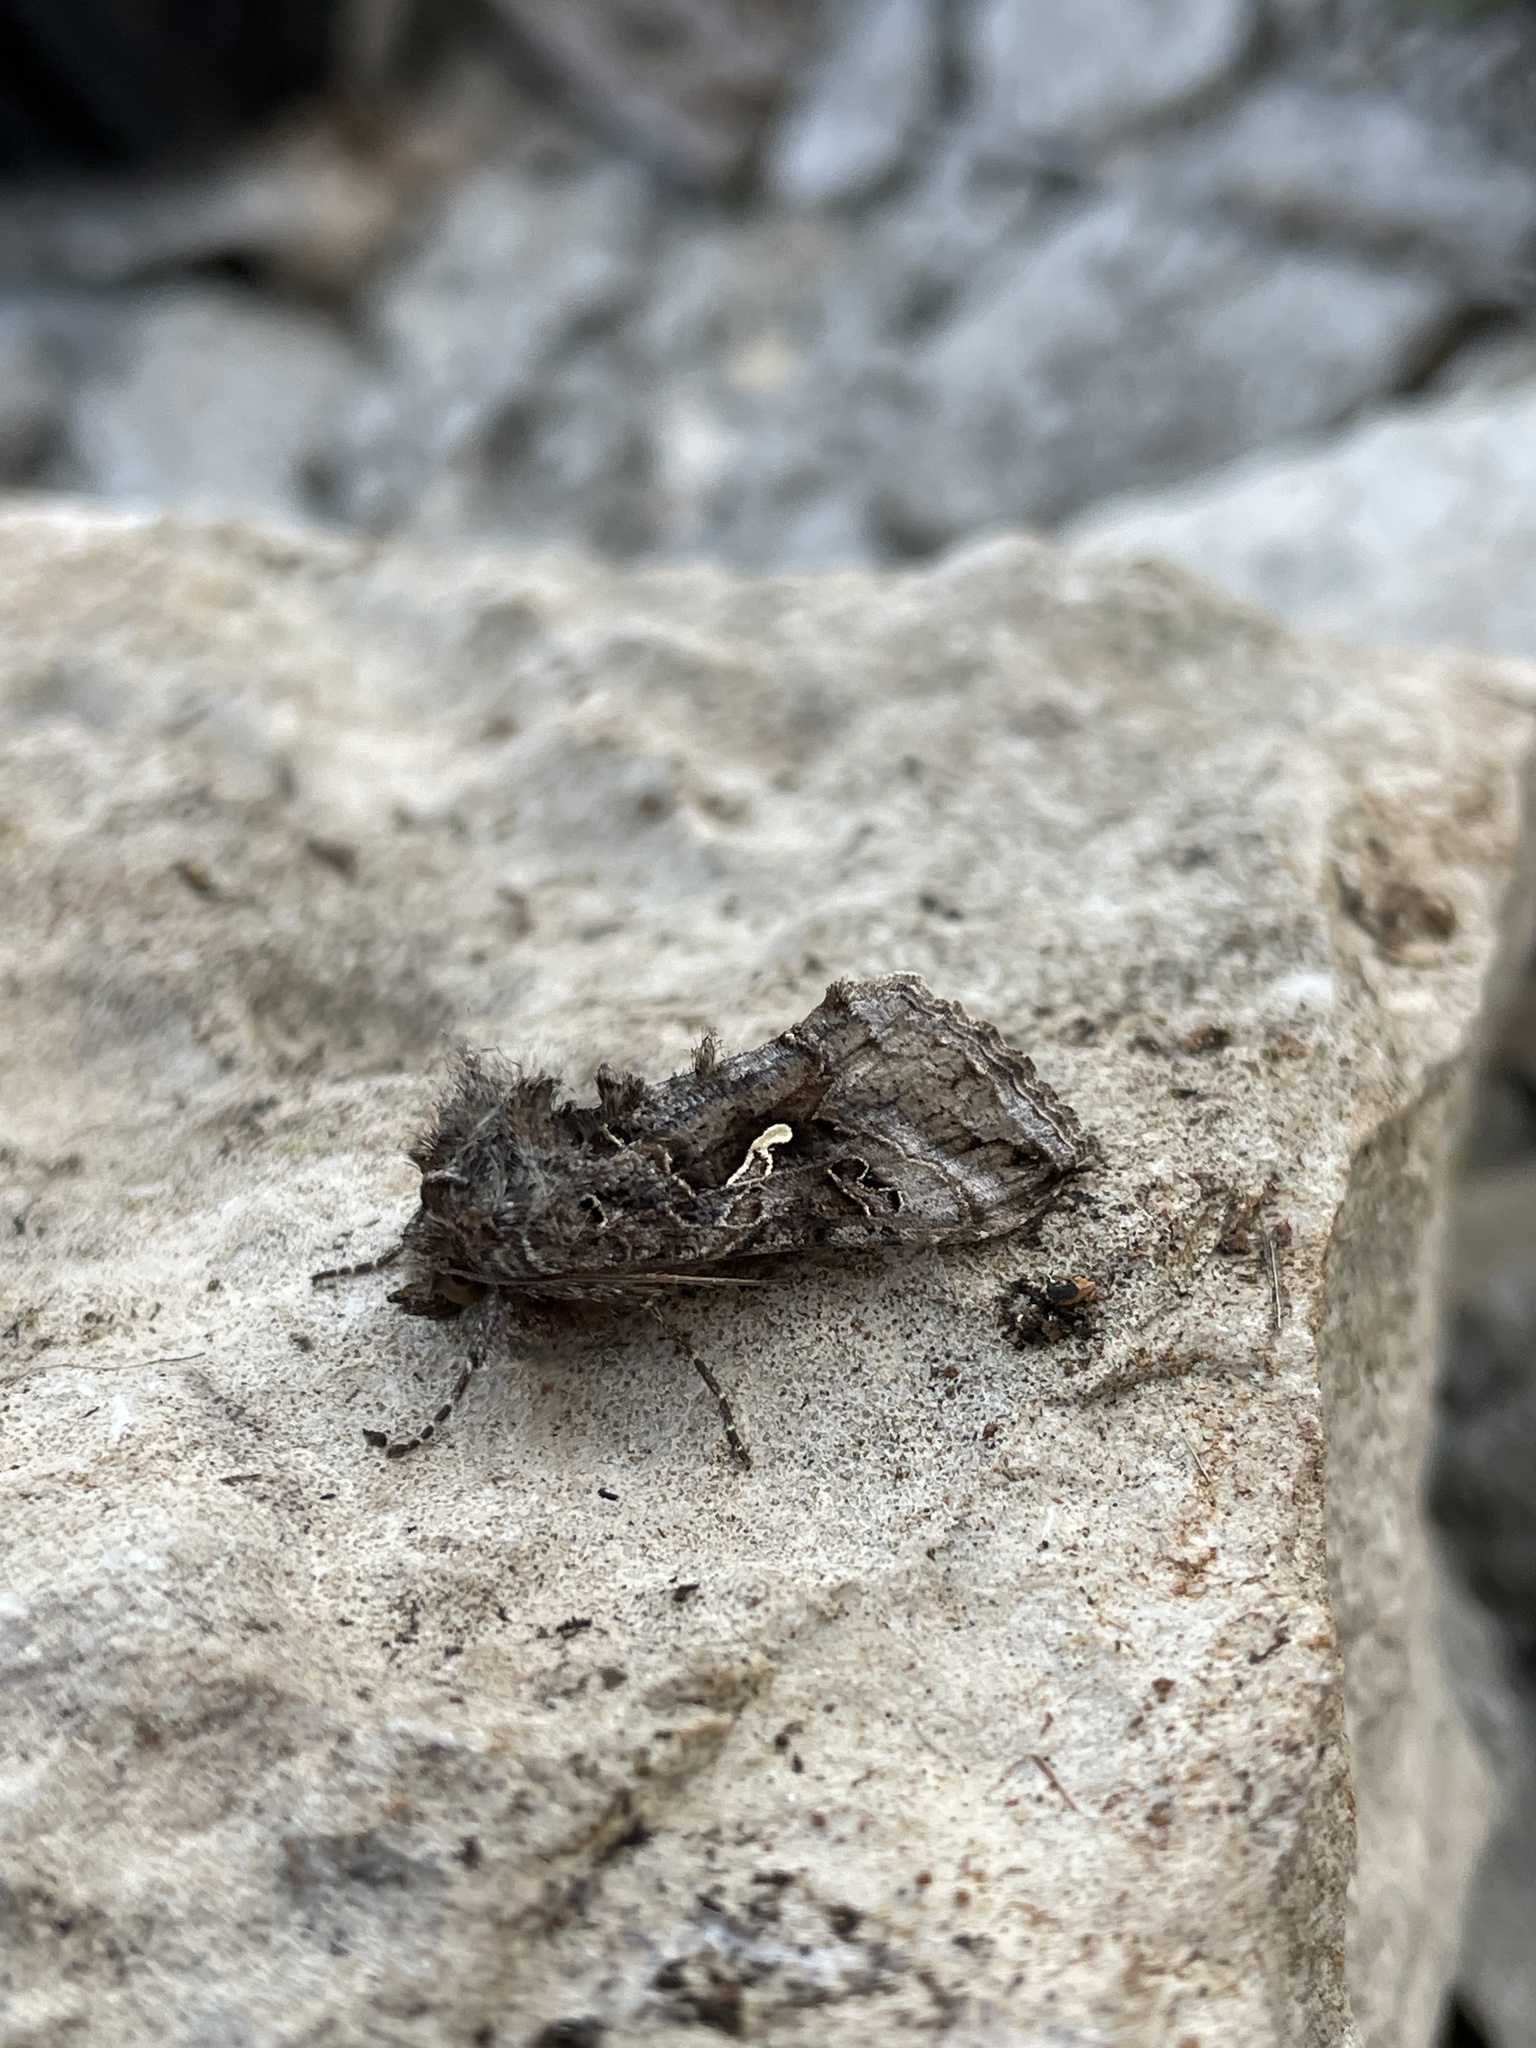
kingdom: Animalia
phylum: Arthropoda
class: Insecta
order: Lepidoptera
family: Noctuidae
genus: Autographa
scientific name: Autographa gamma
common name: Silver y
